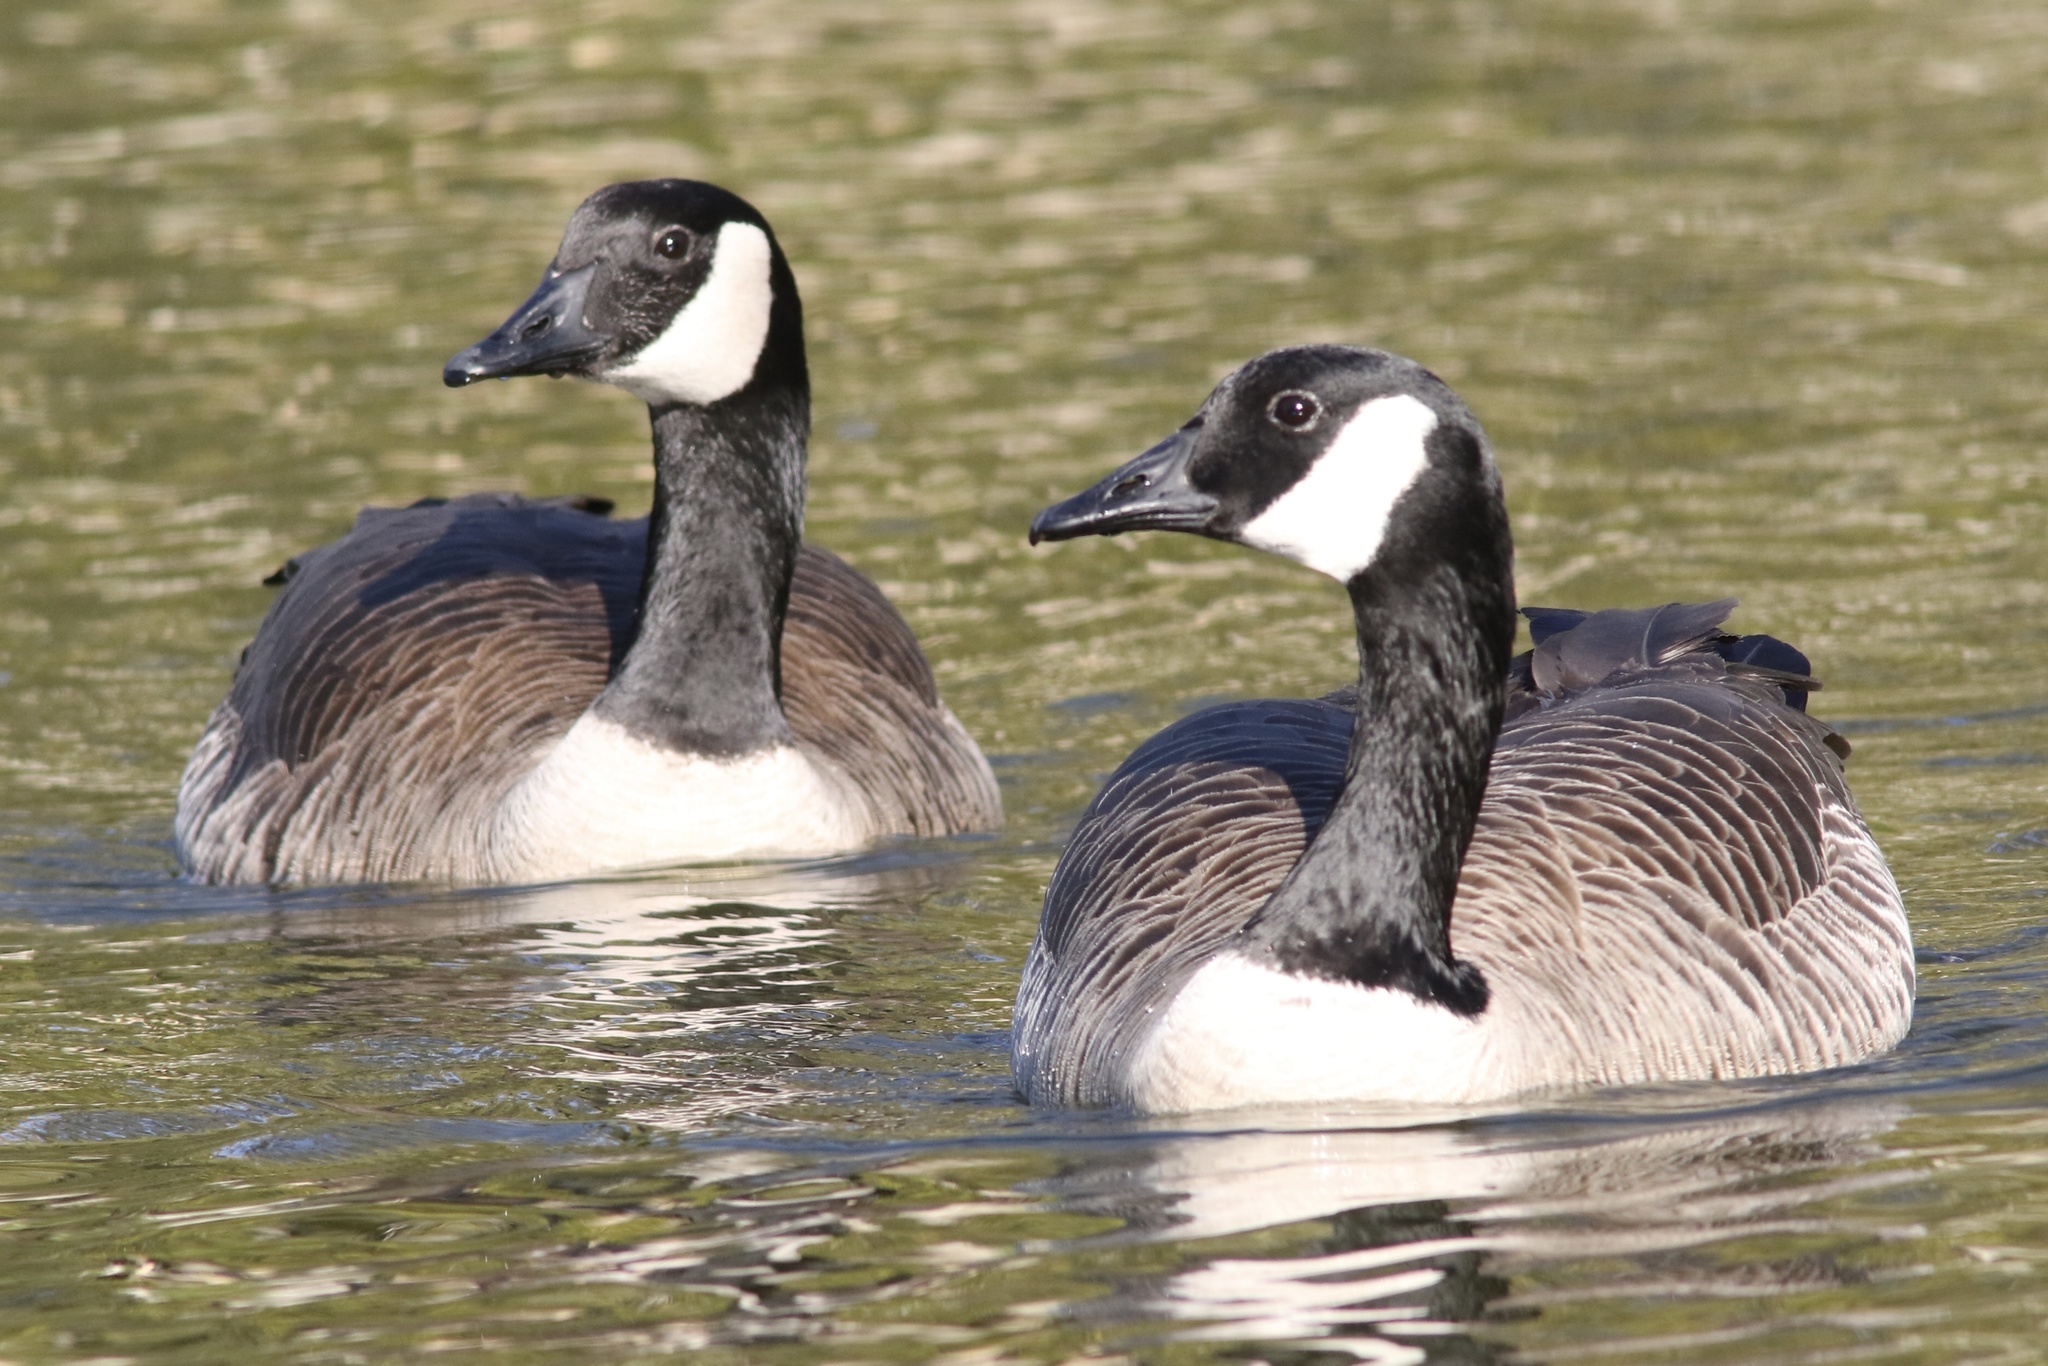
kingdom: Animalia
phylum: Chordata
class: Aves
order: Anseriformes
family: Anatidae
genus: Branta
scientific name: Branta canadensis
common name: Canada goose
